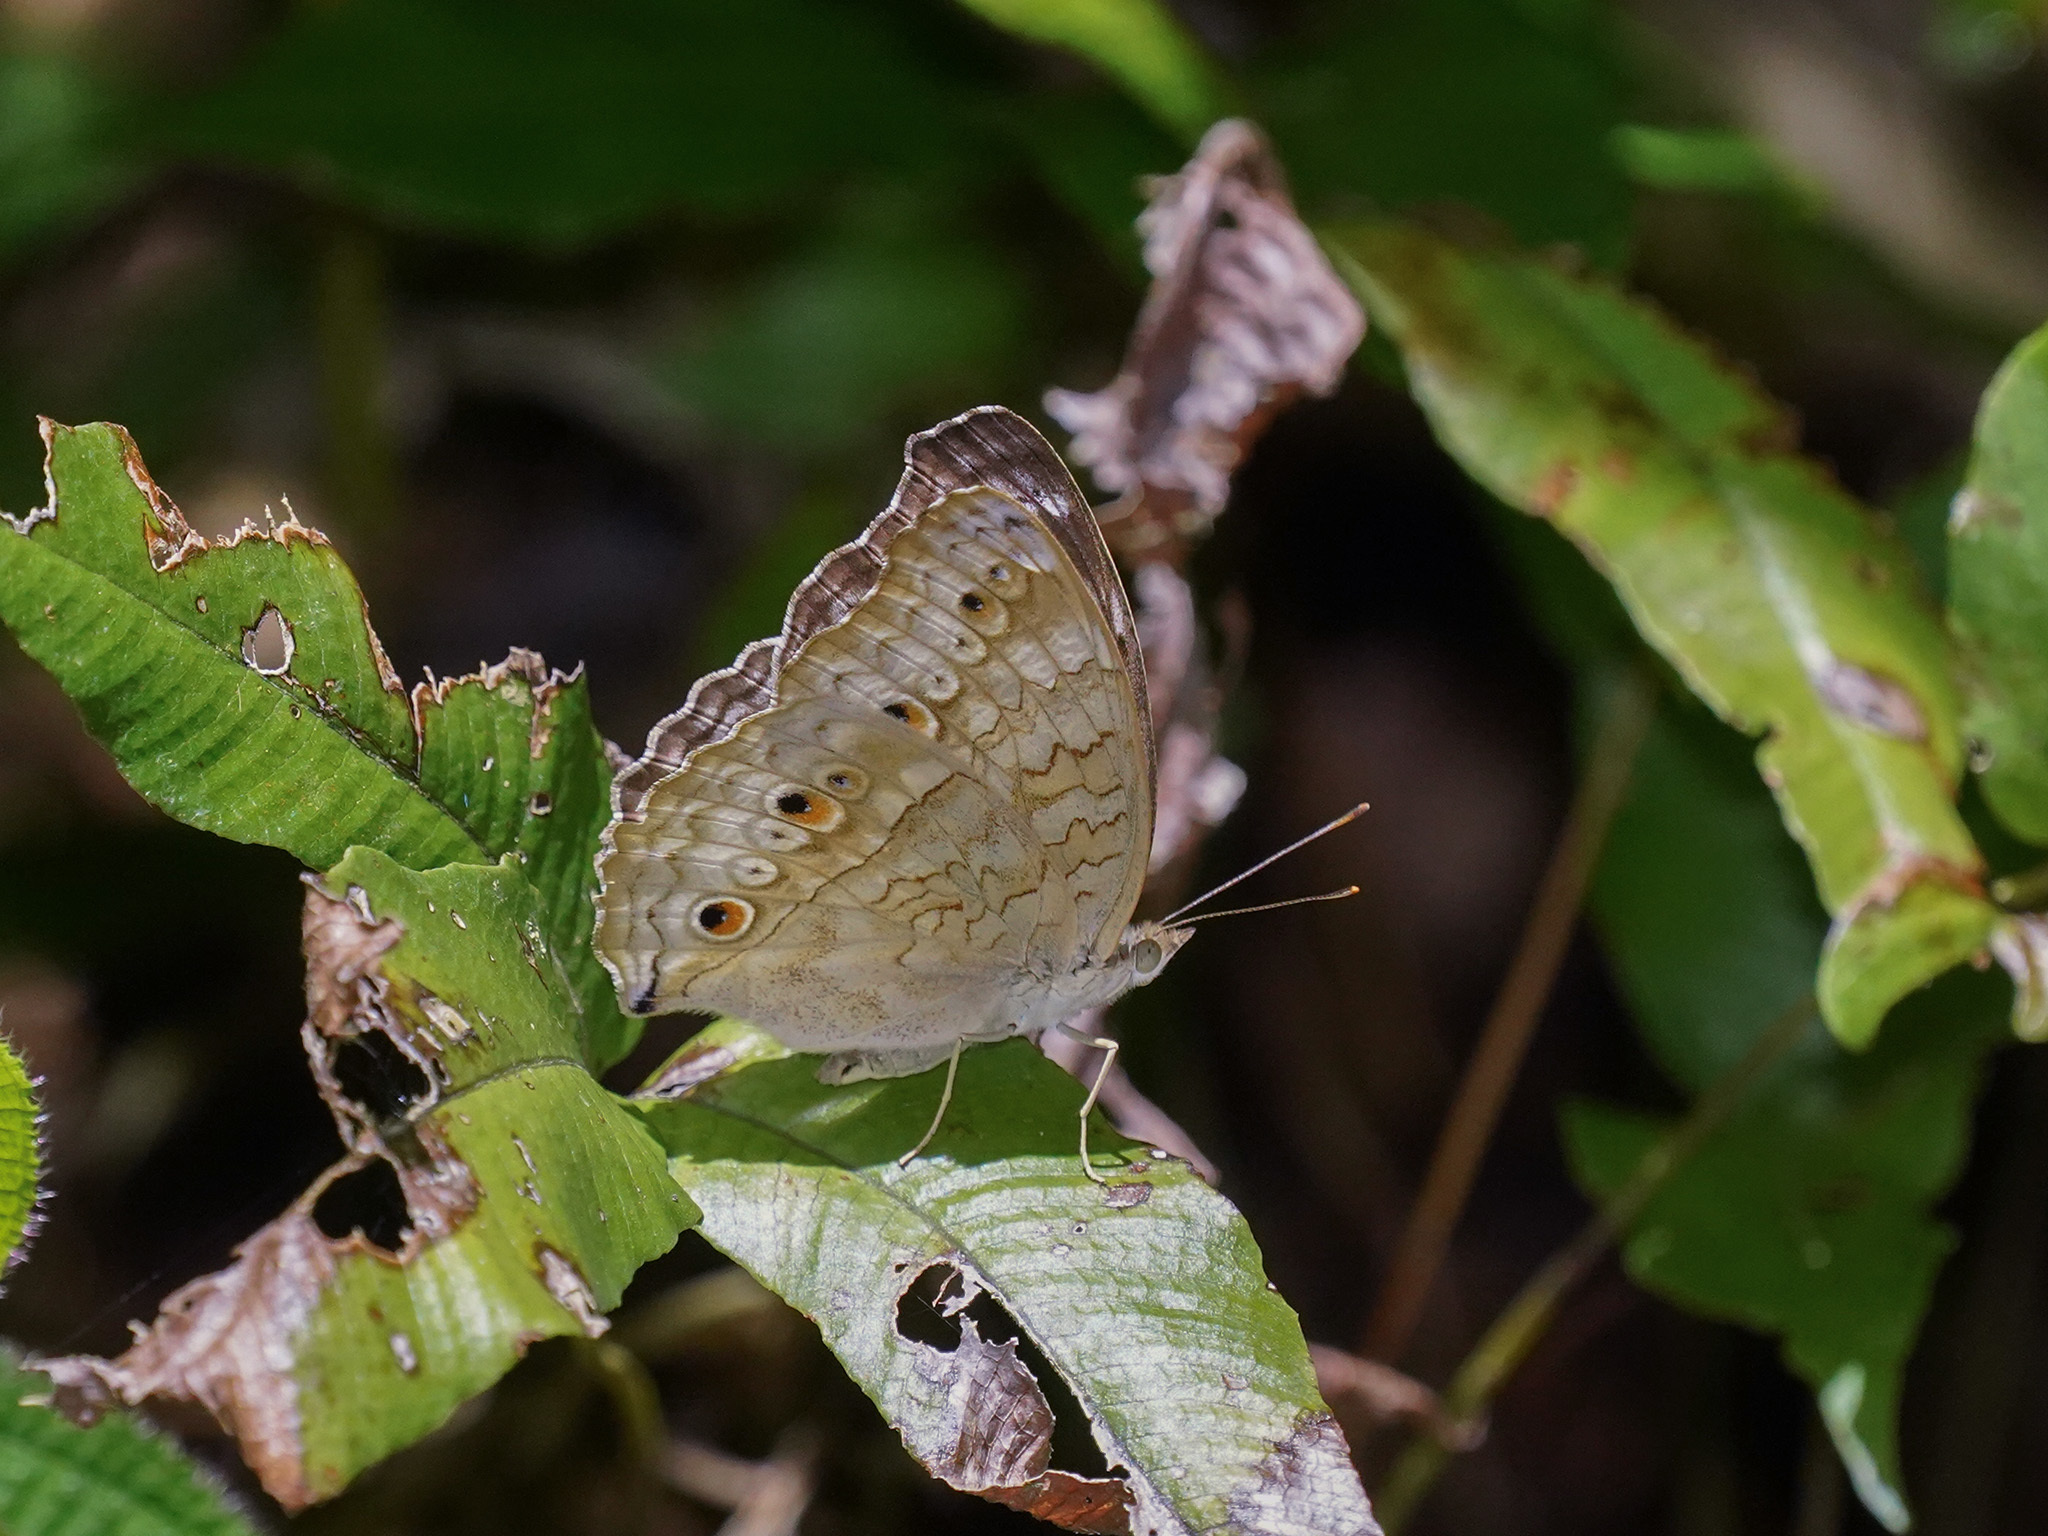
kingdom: Animalia
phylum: Arthropoda
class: Insecta
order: Lepidoptera
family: Nymphalidae
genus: Junonia
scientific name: Junonia atlites
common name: Grey pansy
